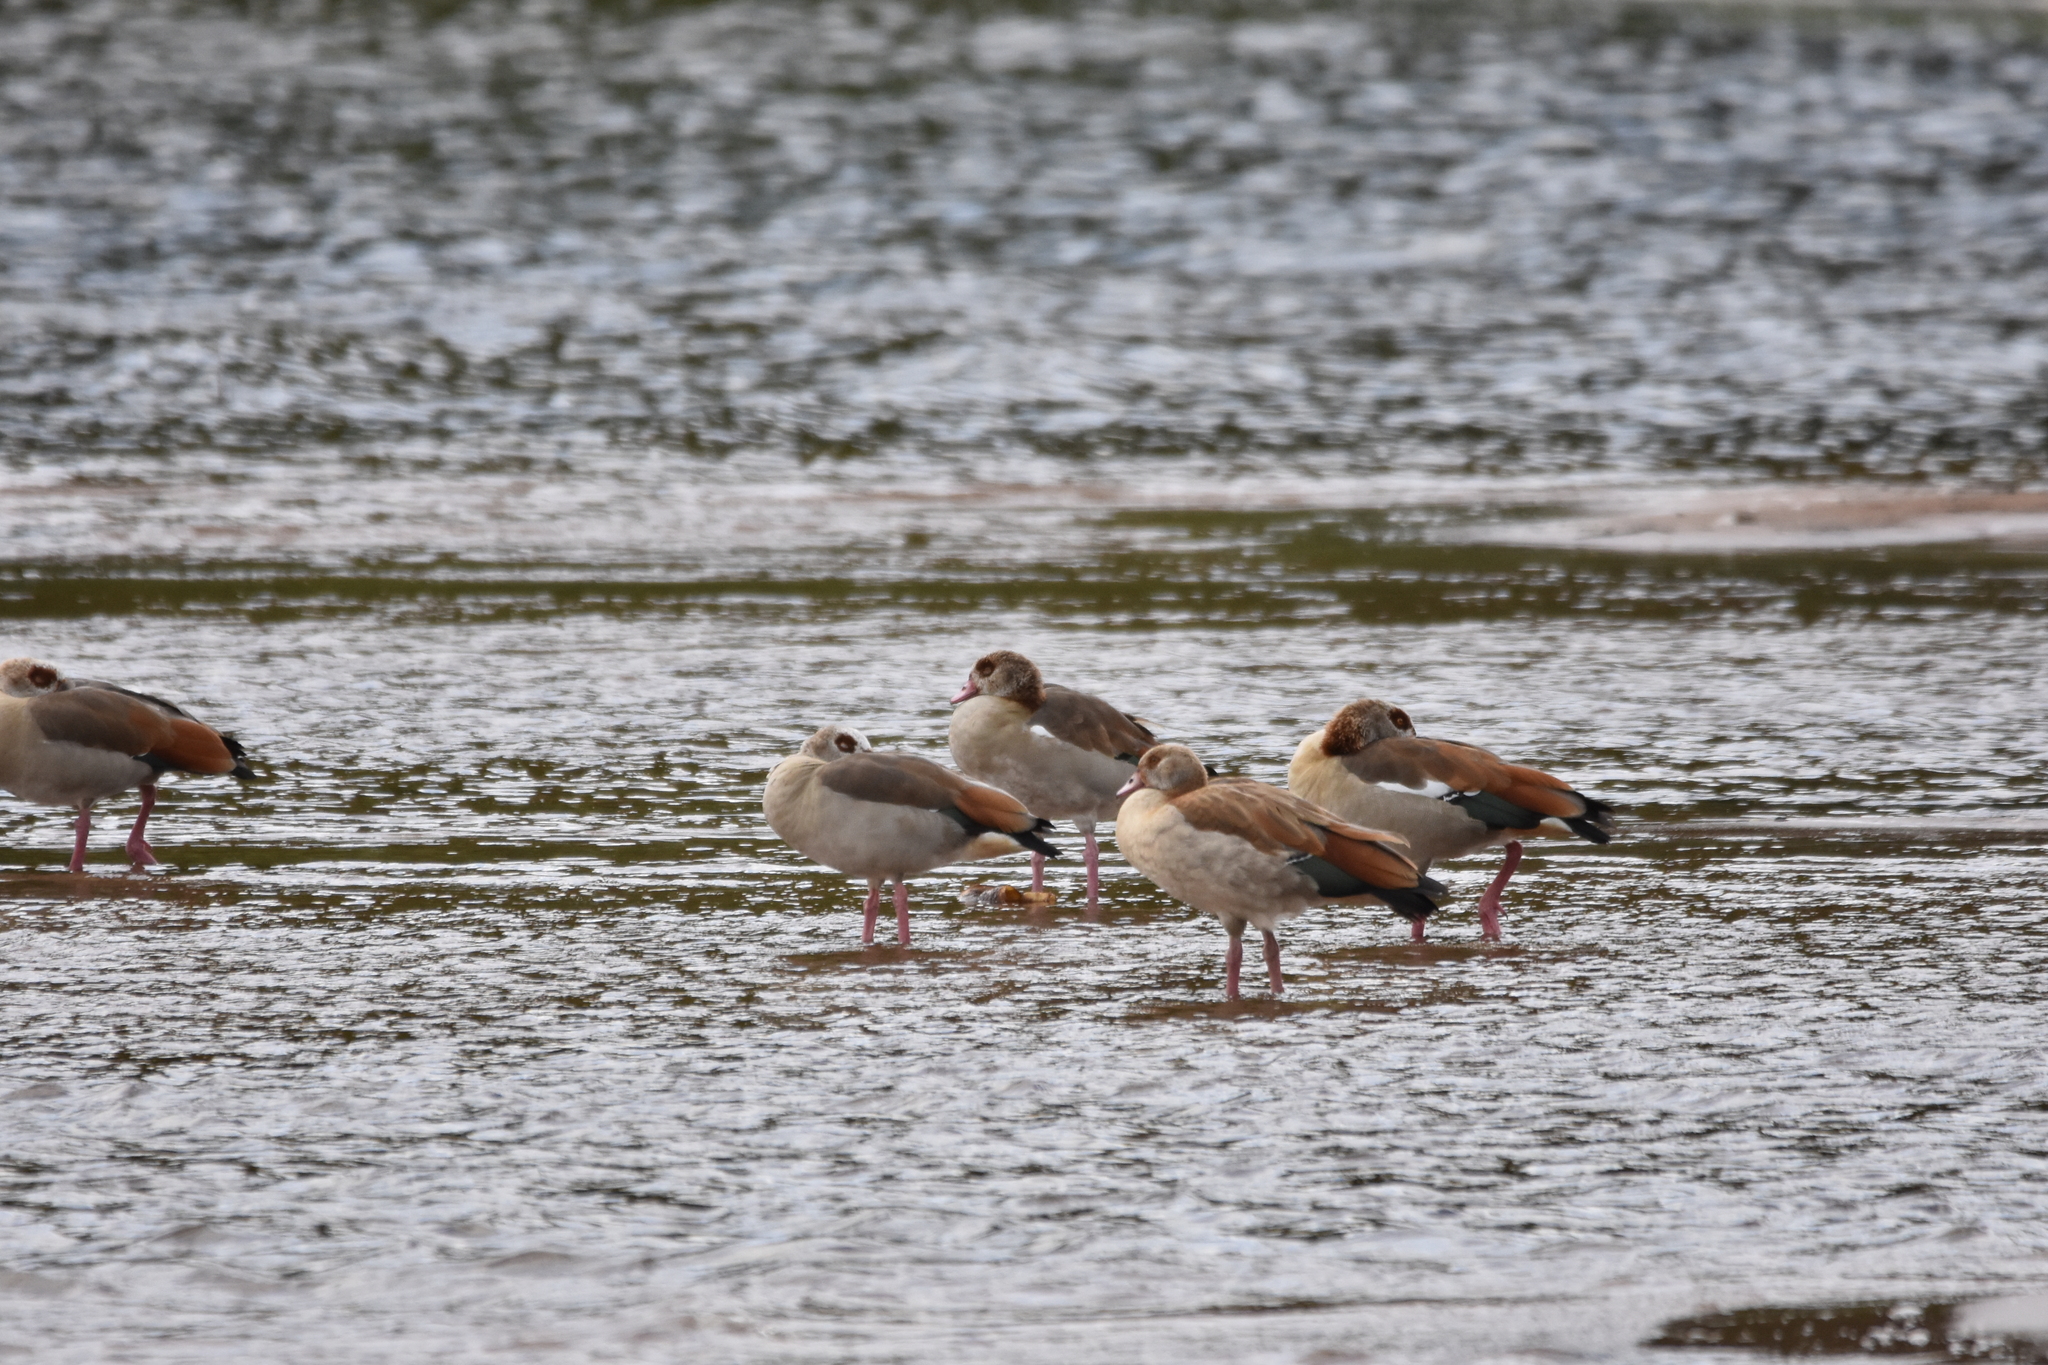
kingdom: Animalia
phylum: Chordata
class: Aves
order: Anseriformes
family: Anatidae
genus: Alopochen
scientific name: Alopochen aegyptiaca
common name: Egyptian goose
